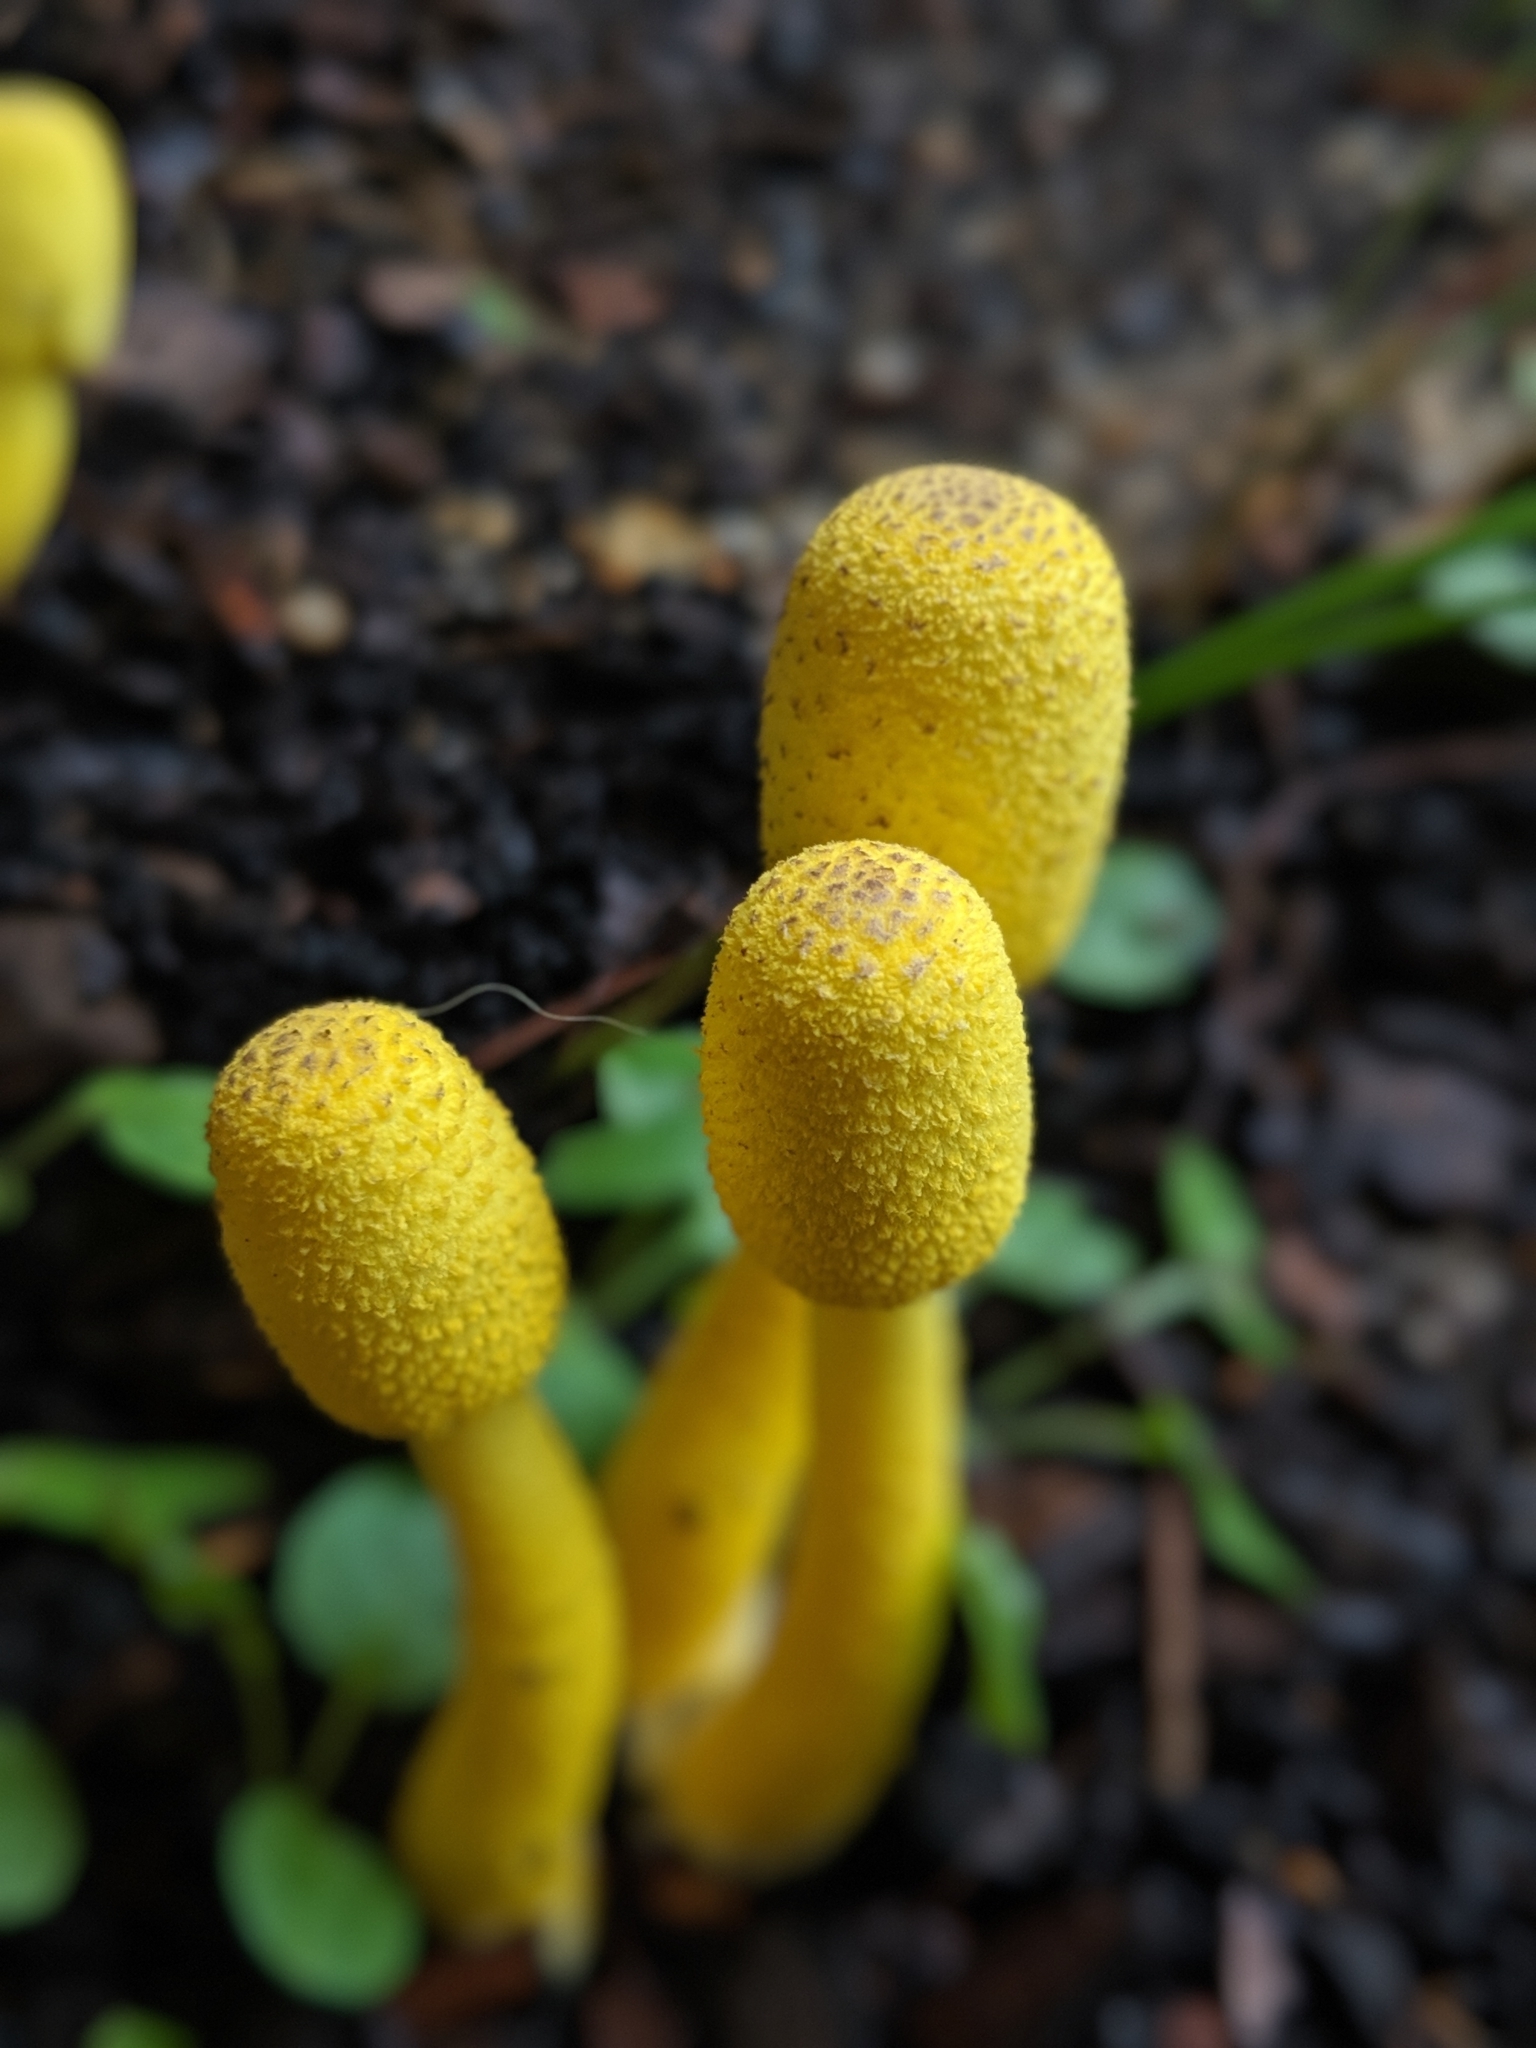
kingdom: Fungi
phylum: Basidiomycota
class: Agaricomycetes
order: Agaricales
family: Agaricaceae
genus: Leucocoprinus
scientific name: Leucocoprinus birnbaumii
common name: Plantpot dapperling
